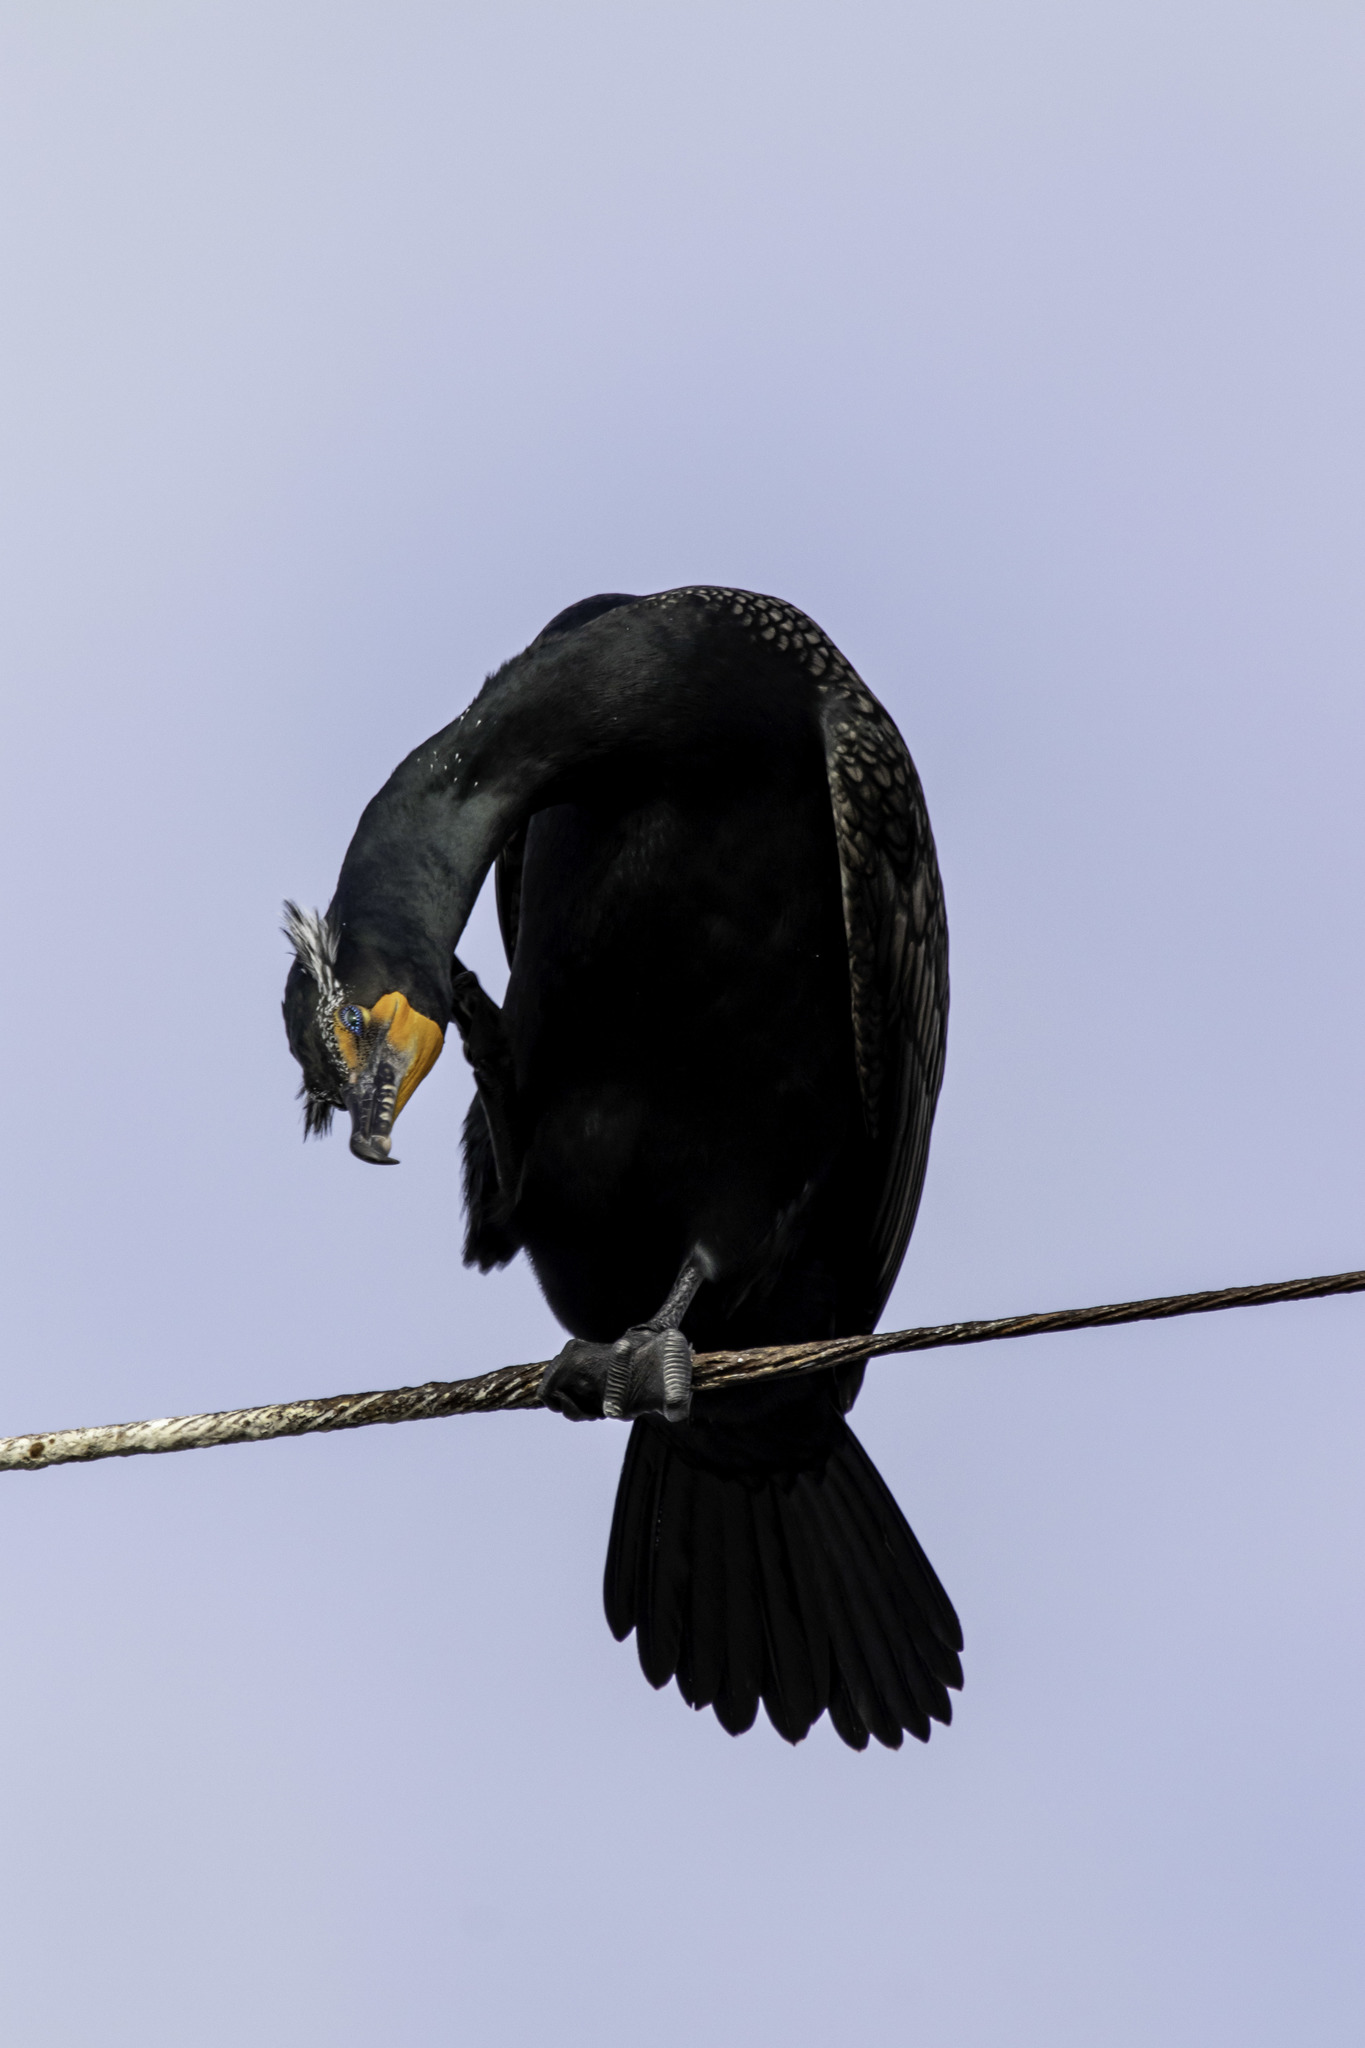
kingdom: Animalia
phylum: Chordata
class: Aves
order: Suliformes
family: Phalacrocoracidae
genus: Phalacrocorax
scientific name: Phalacrocorax auritus
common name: Double-crested cormorant
